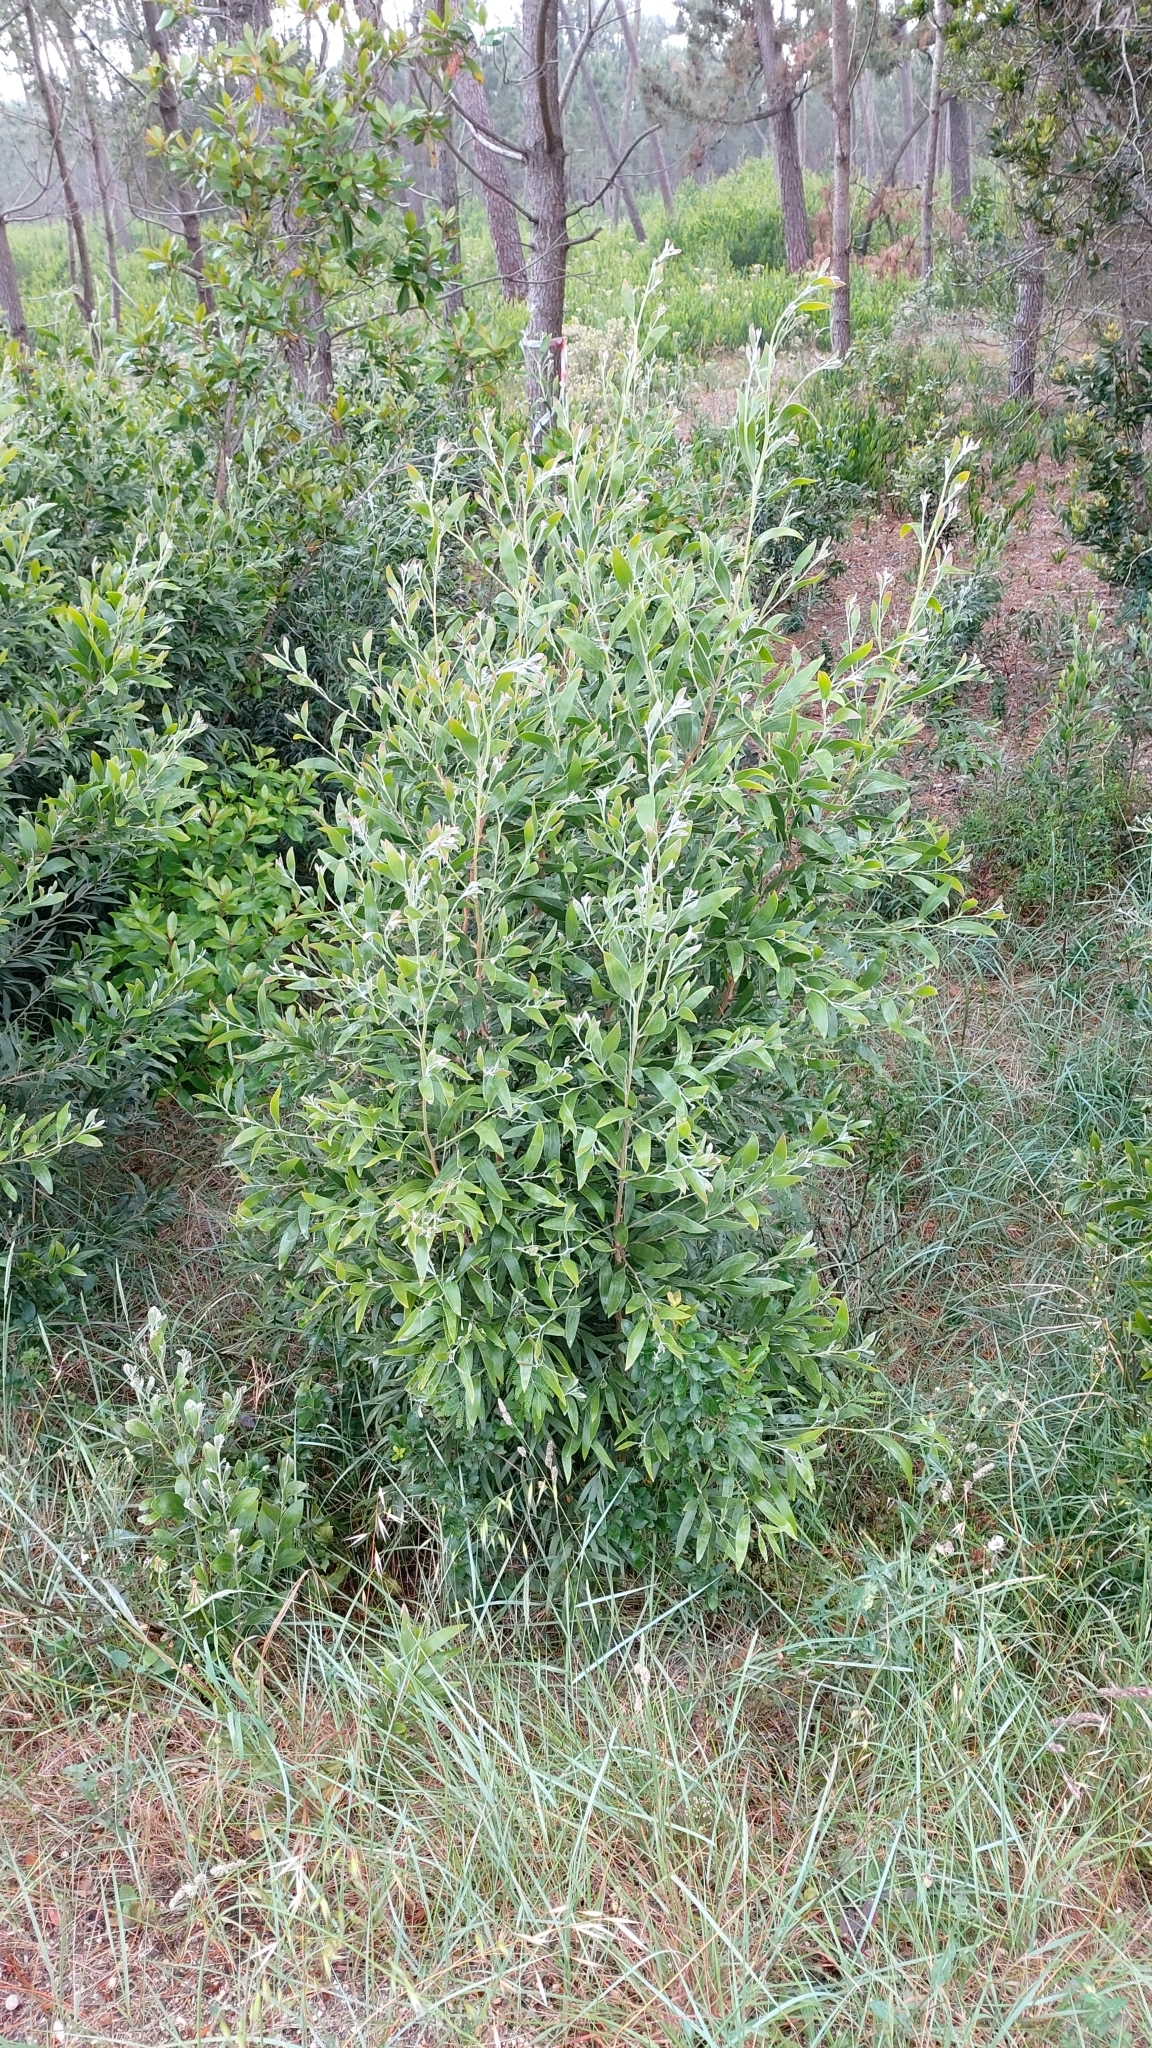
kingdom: Plantae
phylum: Tracheophyta
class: Magnoliopsida
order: Fabales
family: Fabaceae
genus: Acacia
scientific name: Acacia melanoxylon
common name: Blackwood
